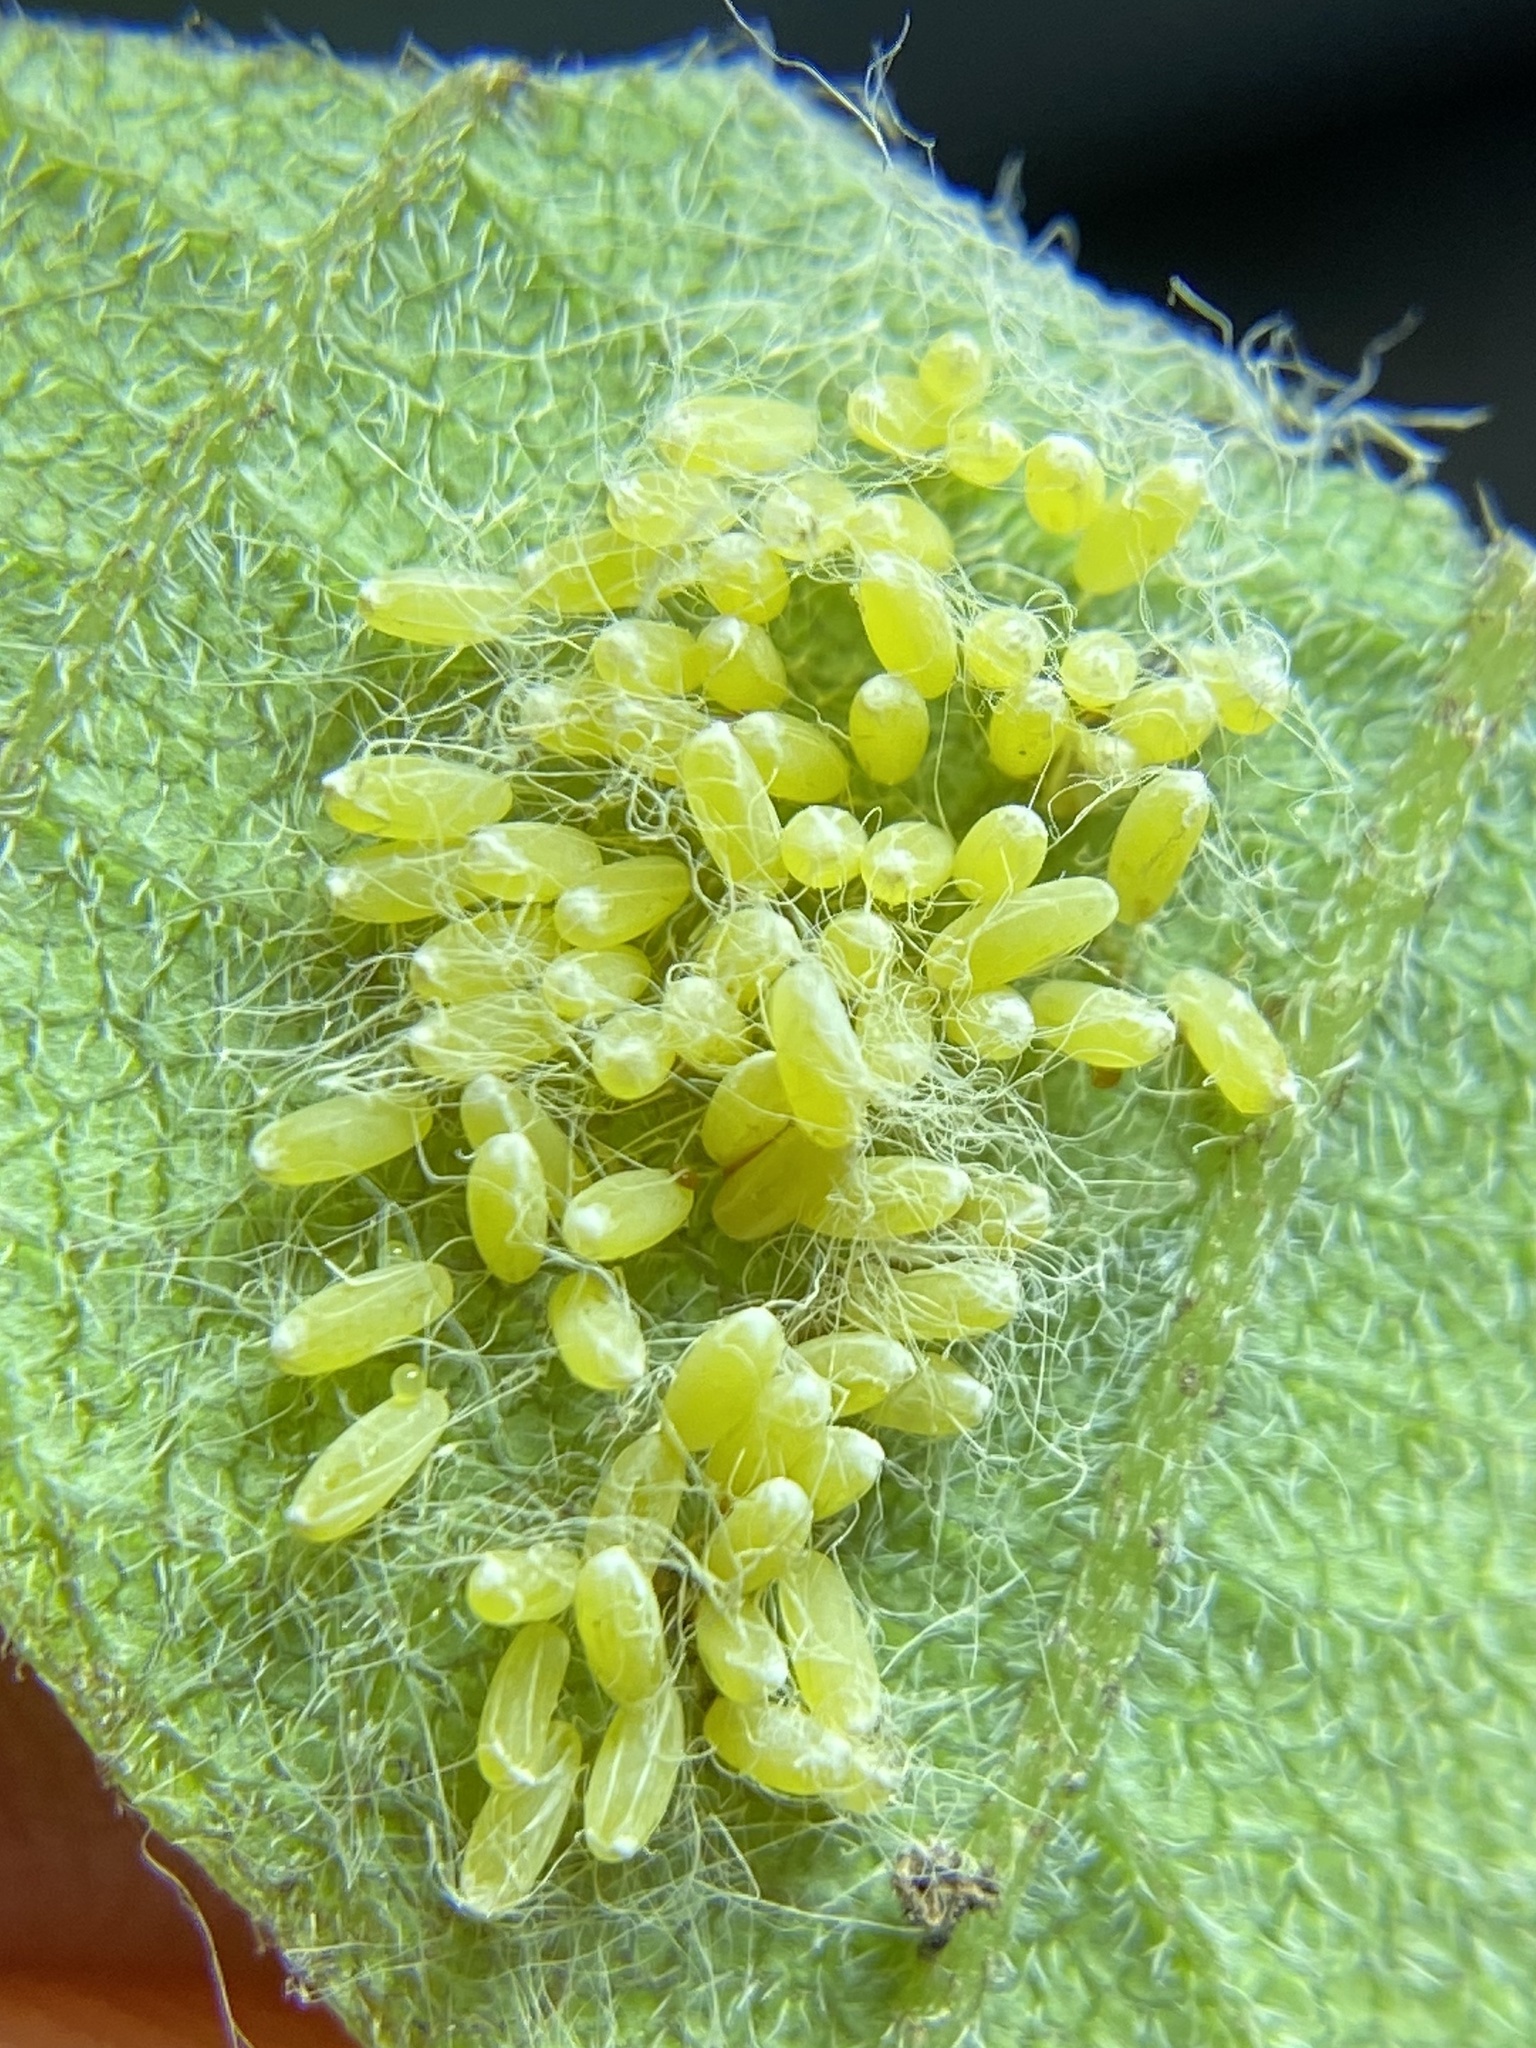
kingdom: Animalia
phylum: Arthropoda
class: Insecta
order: Coleoptera
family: Chrysomelidae
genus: Eurypepla
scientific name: Eurypepla calochroma
